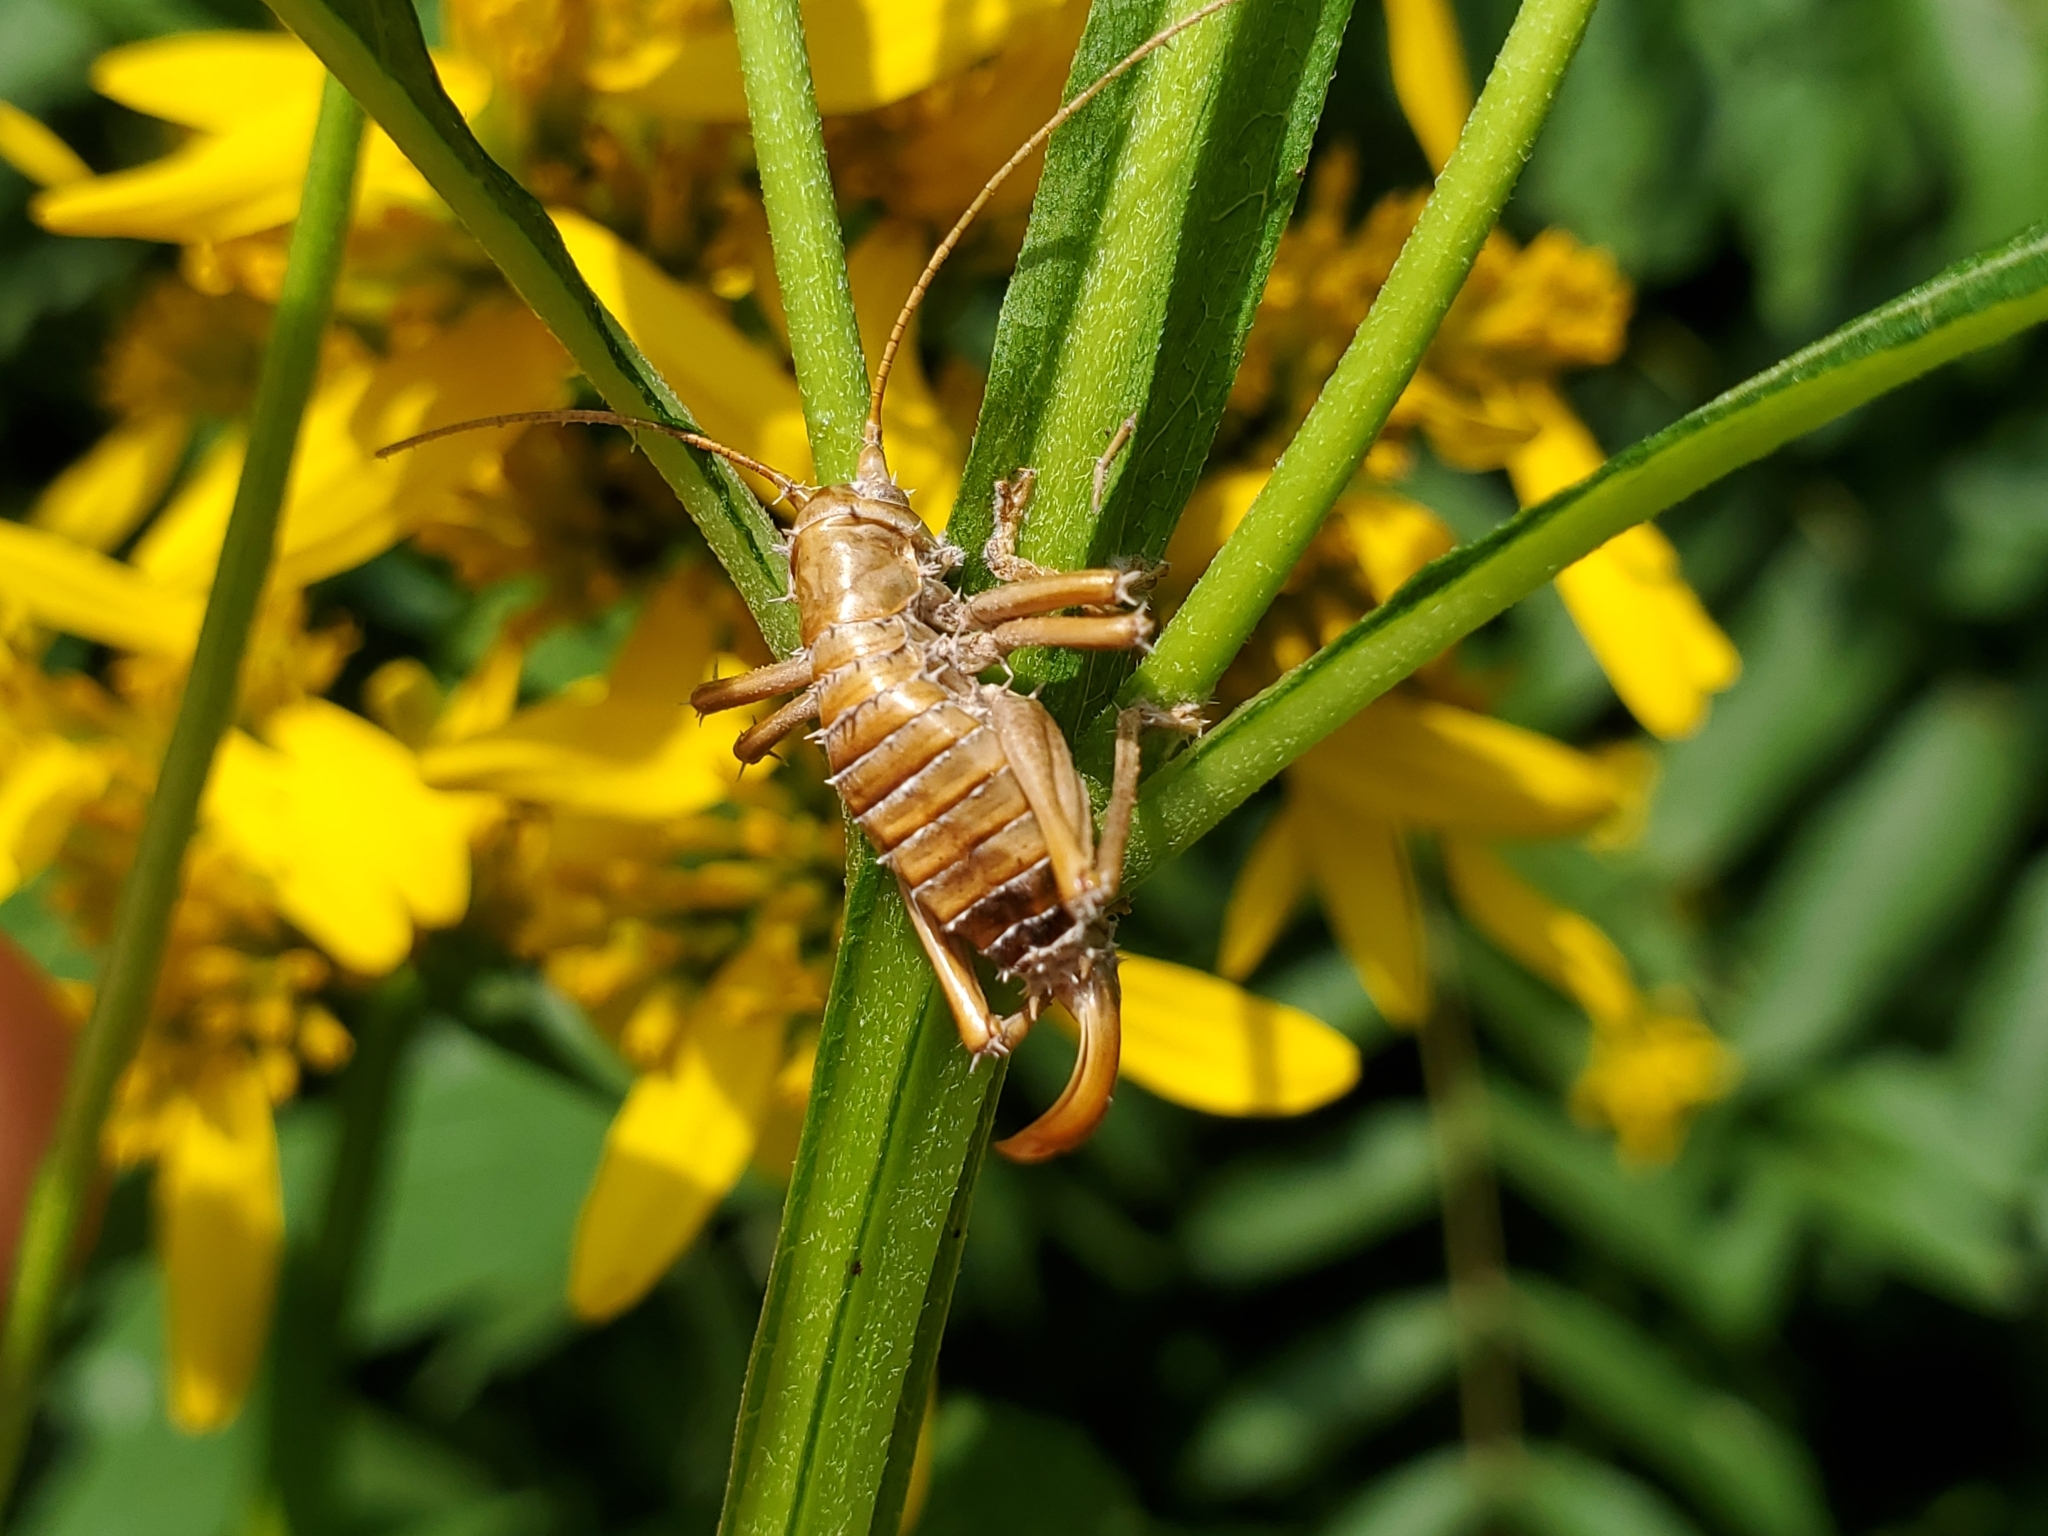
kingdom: Animalia
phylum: Arthropoda
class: Insecta
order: Orthoptera
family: Gryllacrididae
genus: Camptonotus
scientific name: Camptonotus carolinensis
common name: Carolina leaf-roller
